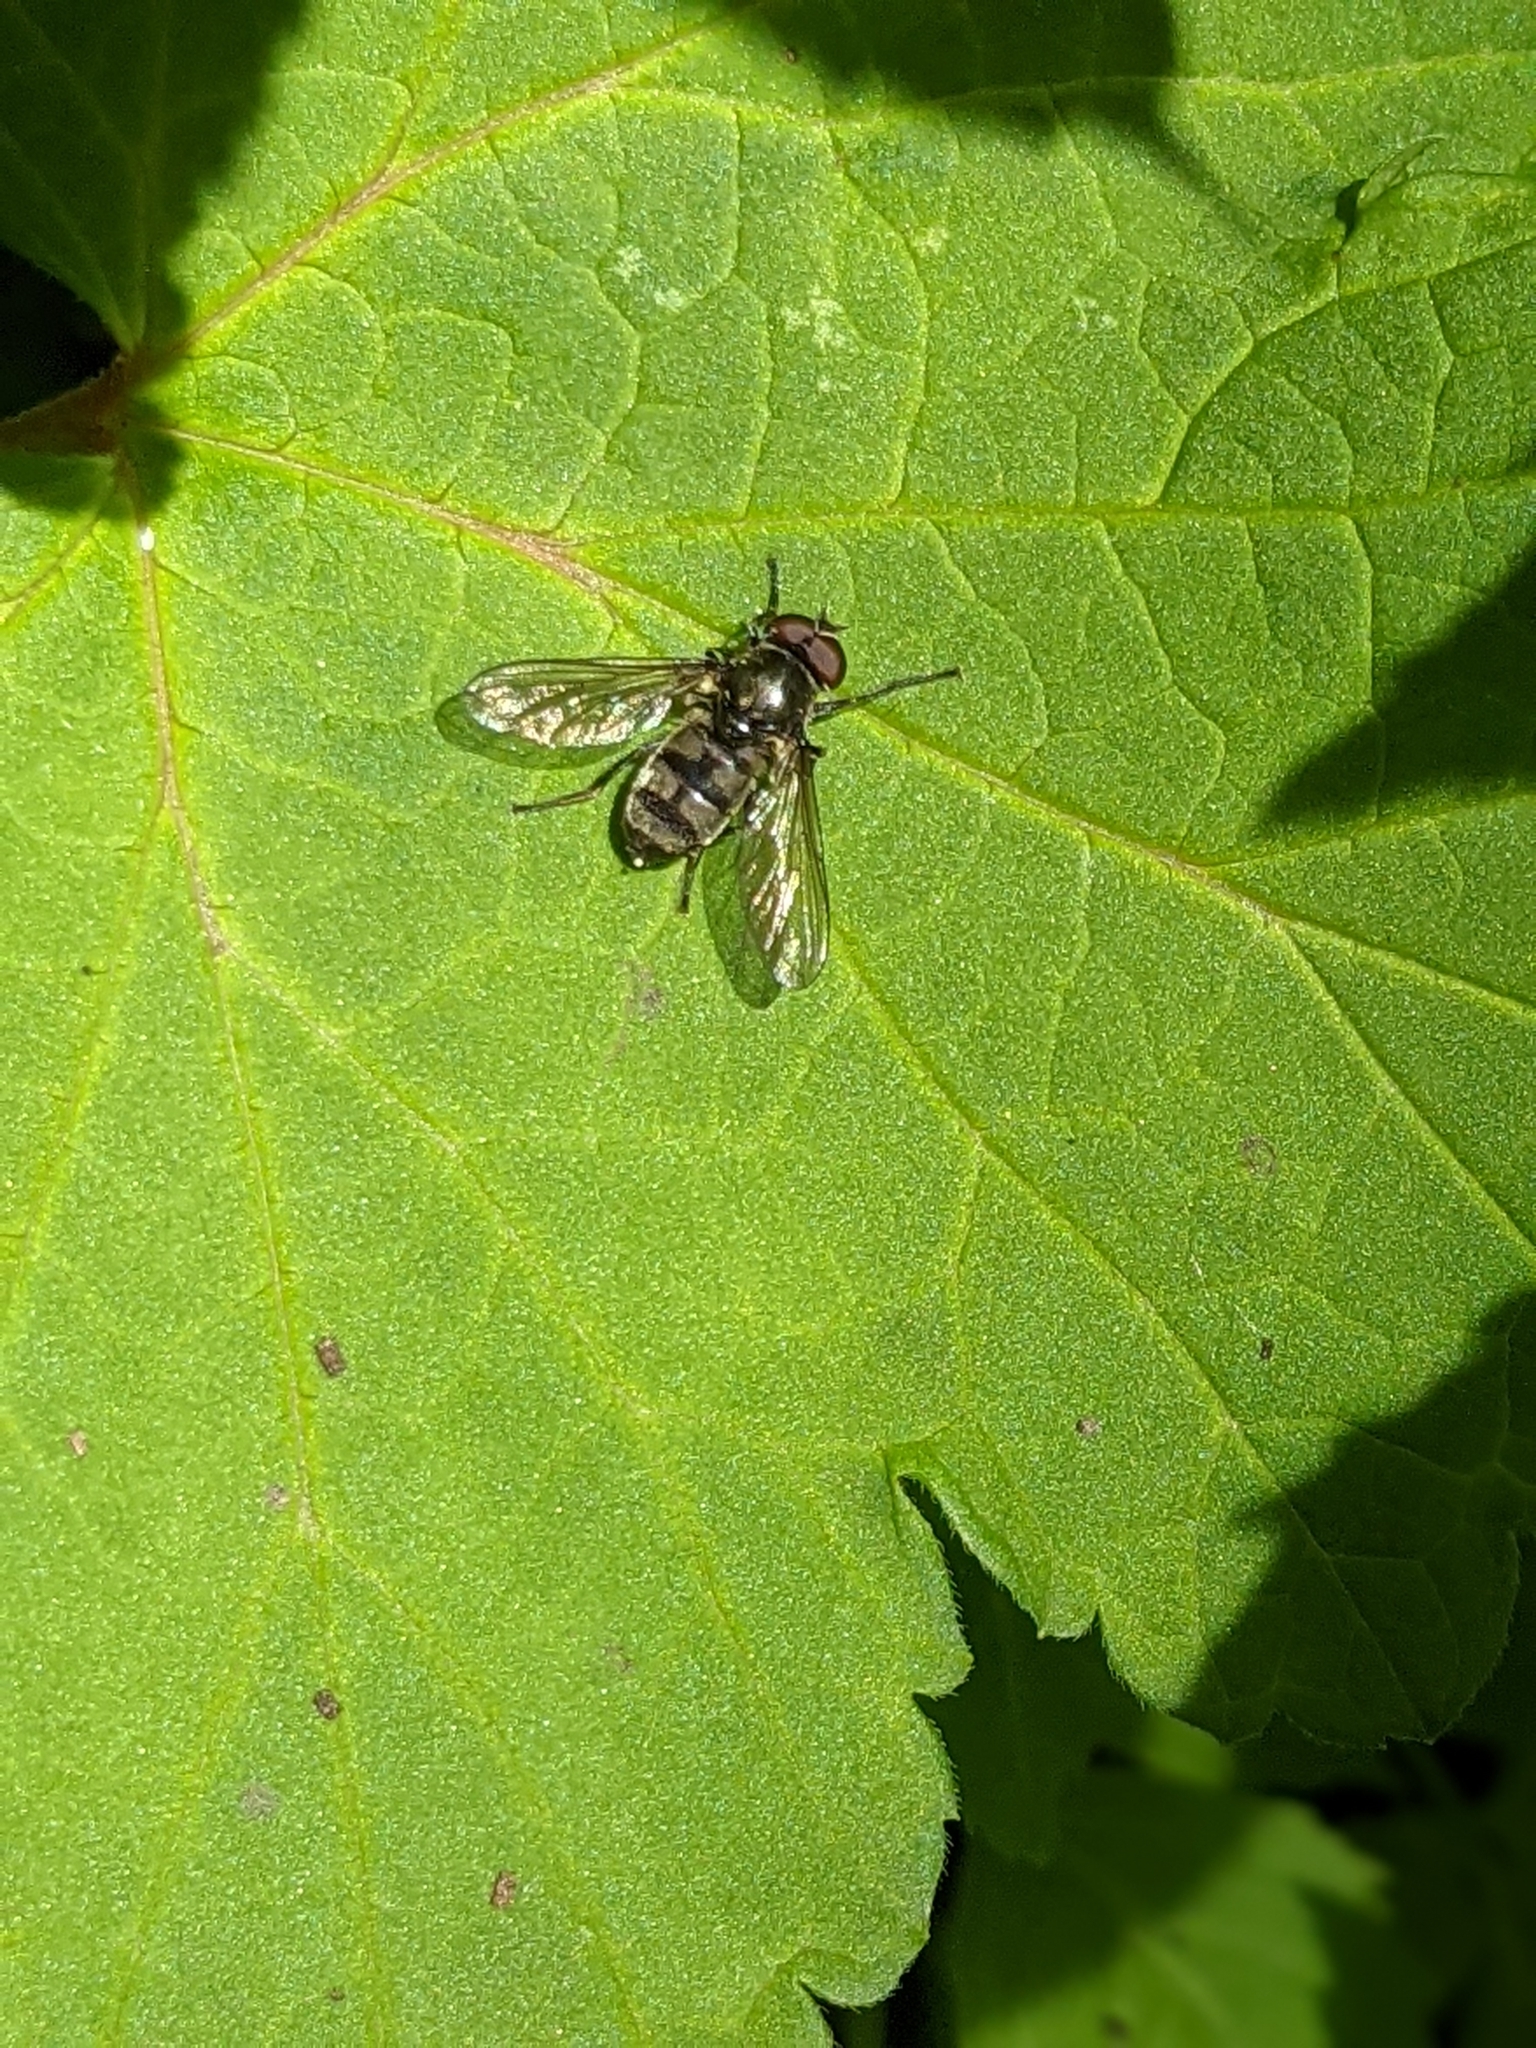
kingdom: Animalia
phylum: Arthropoda
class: Insecta
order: Diptera
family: Syrphidae
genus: Portevinia
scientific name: Portevinia maculata
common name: Ramson's hoverfly
